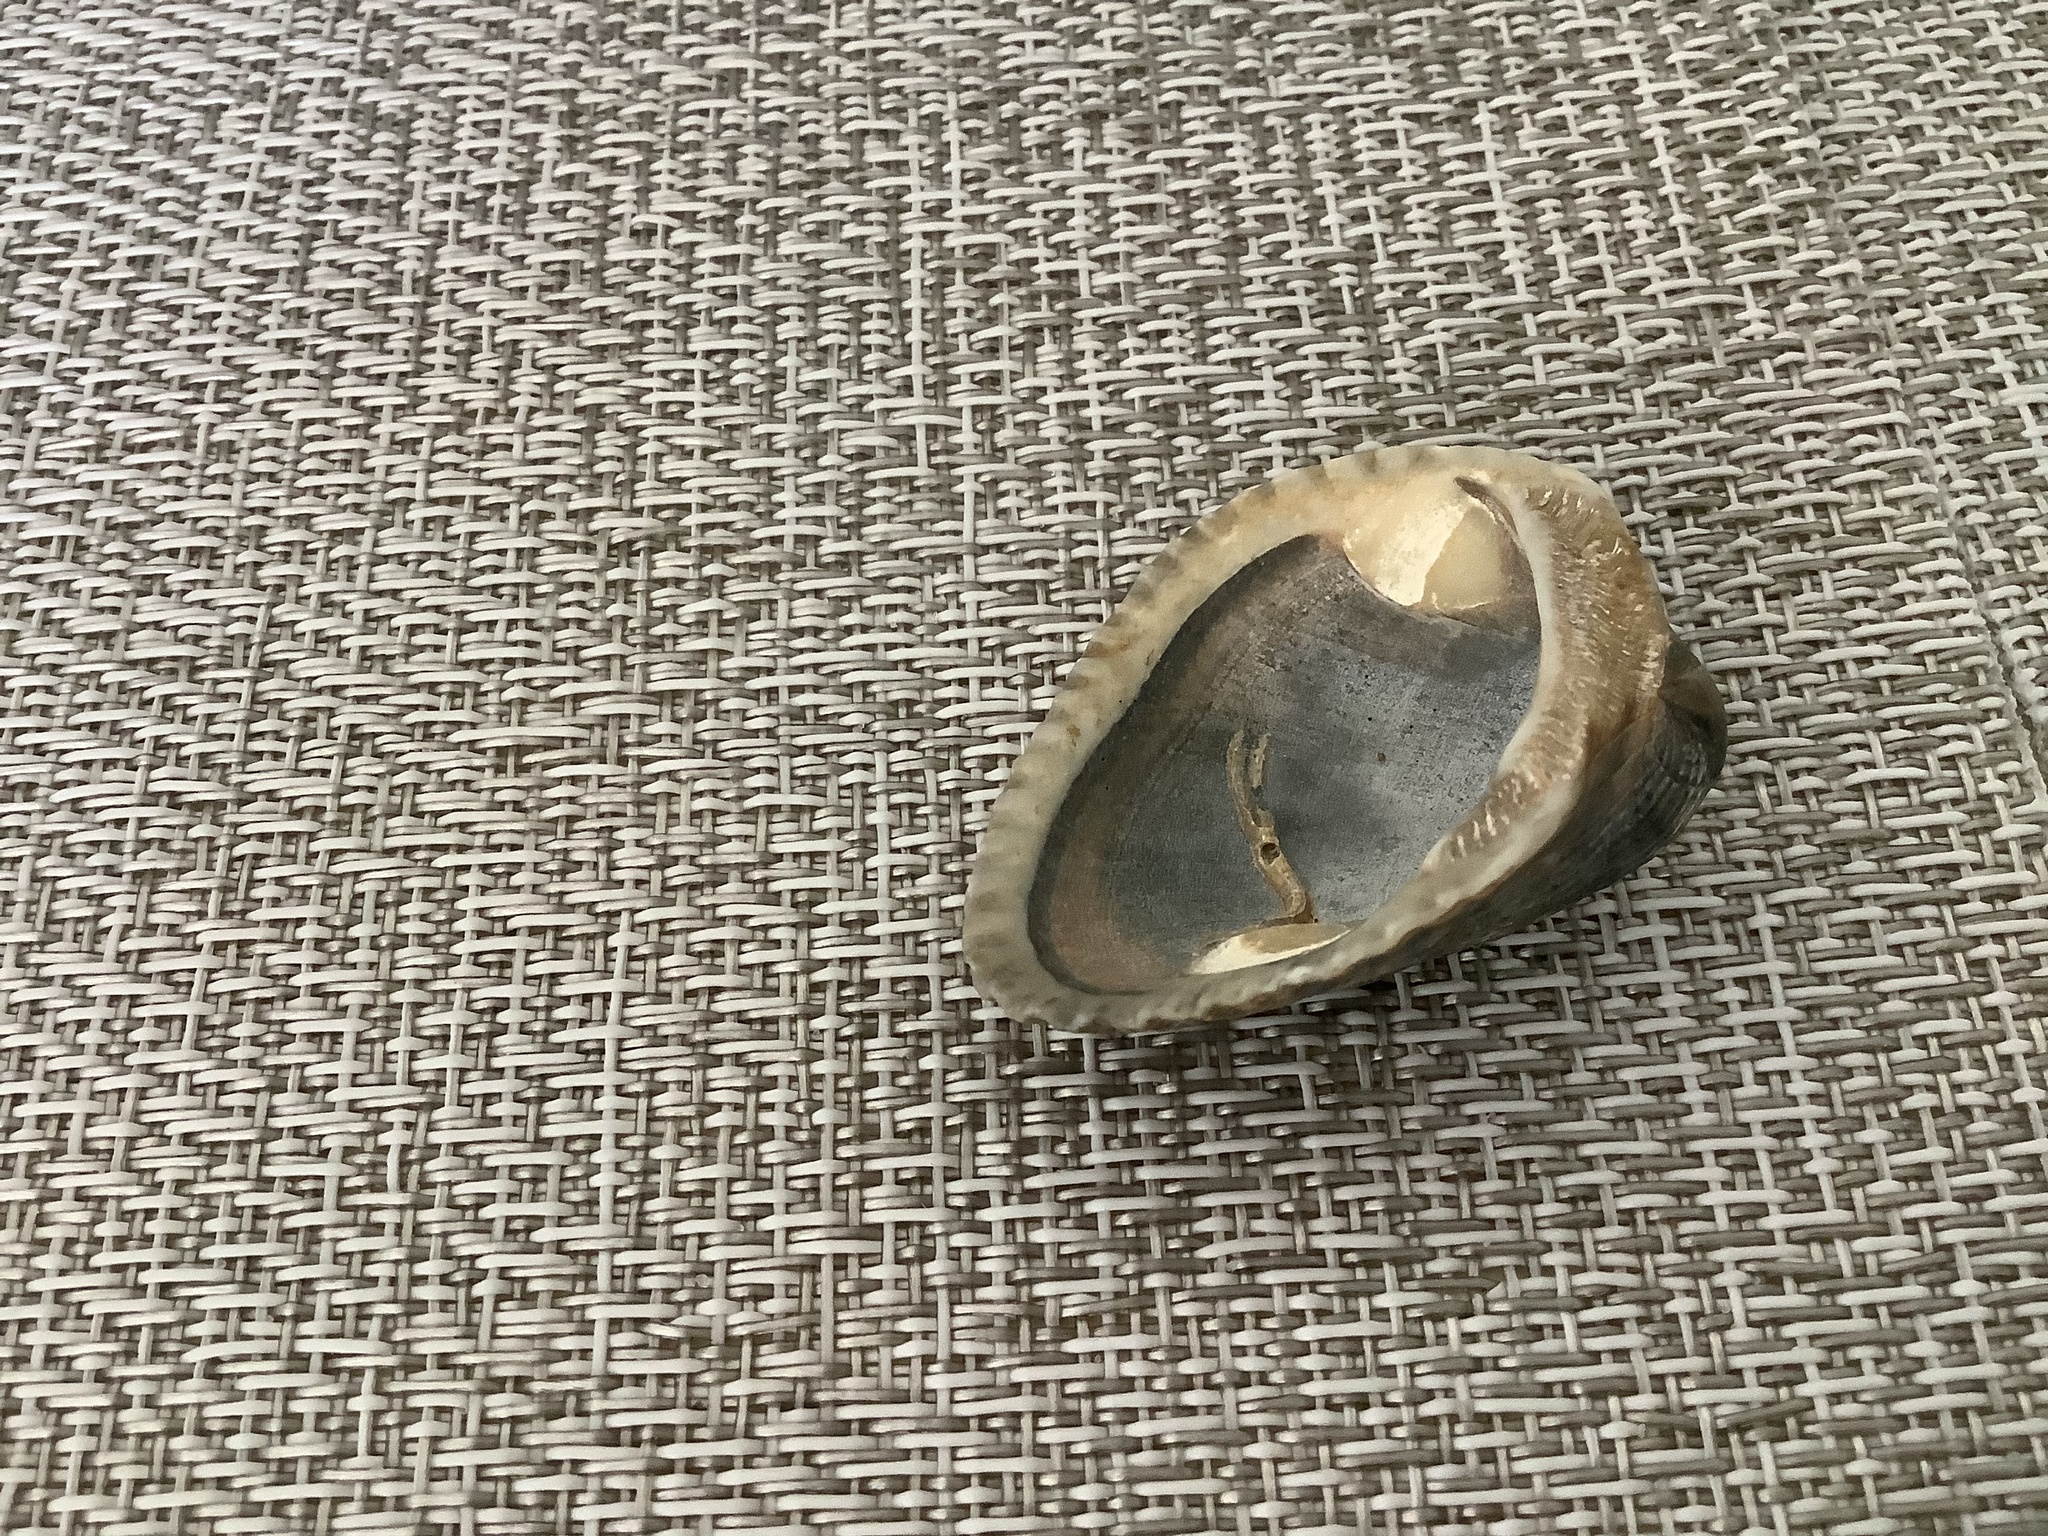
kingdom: Animalia
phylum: Mollusca
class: Bivalvia
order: Arcida
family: Noetiidae
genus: Noetia
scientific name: Noetia ponderosa
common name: Ponderous ark
